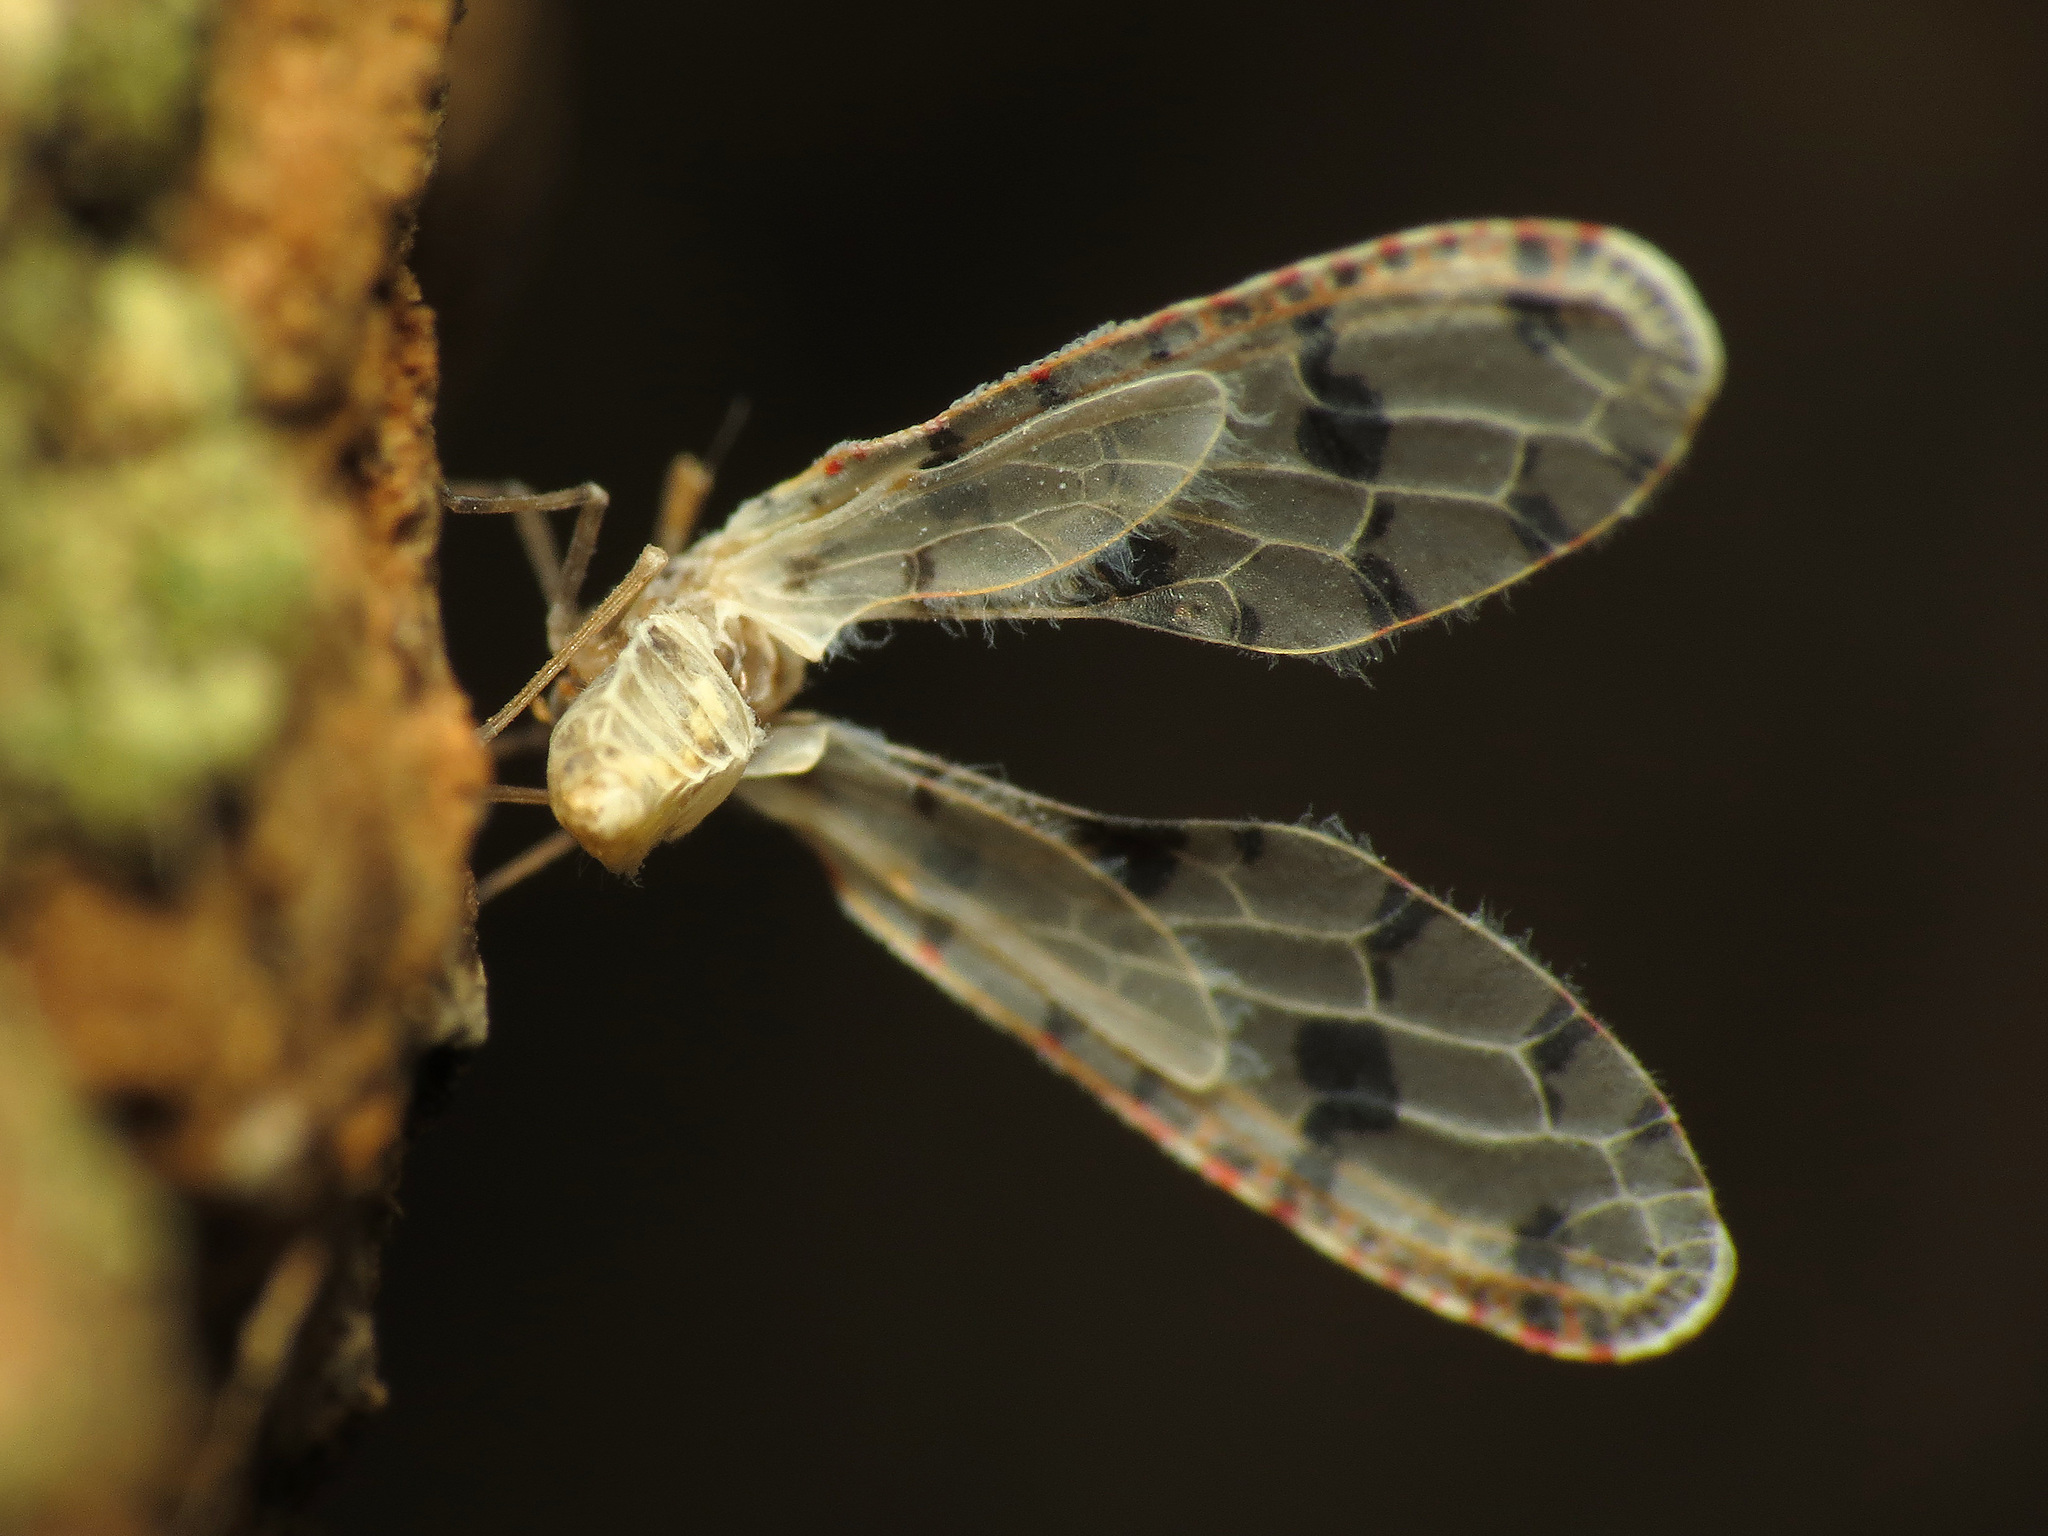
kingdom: Animalia
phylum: Arthropoda
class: Insecta
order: Hemiptera
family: Derbidae
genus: Sikaiana
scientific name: Sikaiana harti
